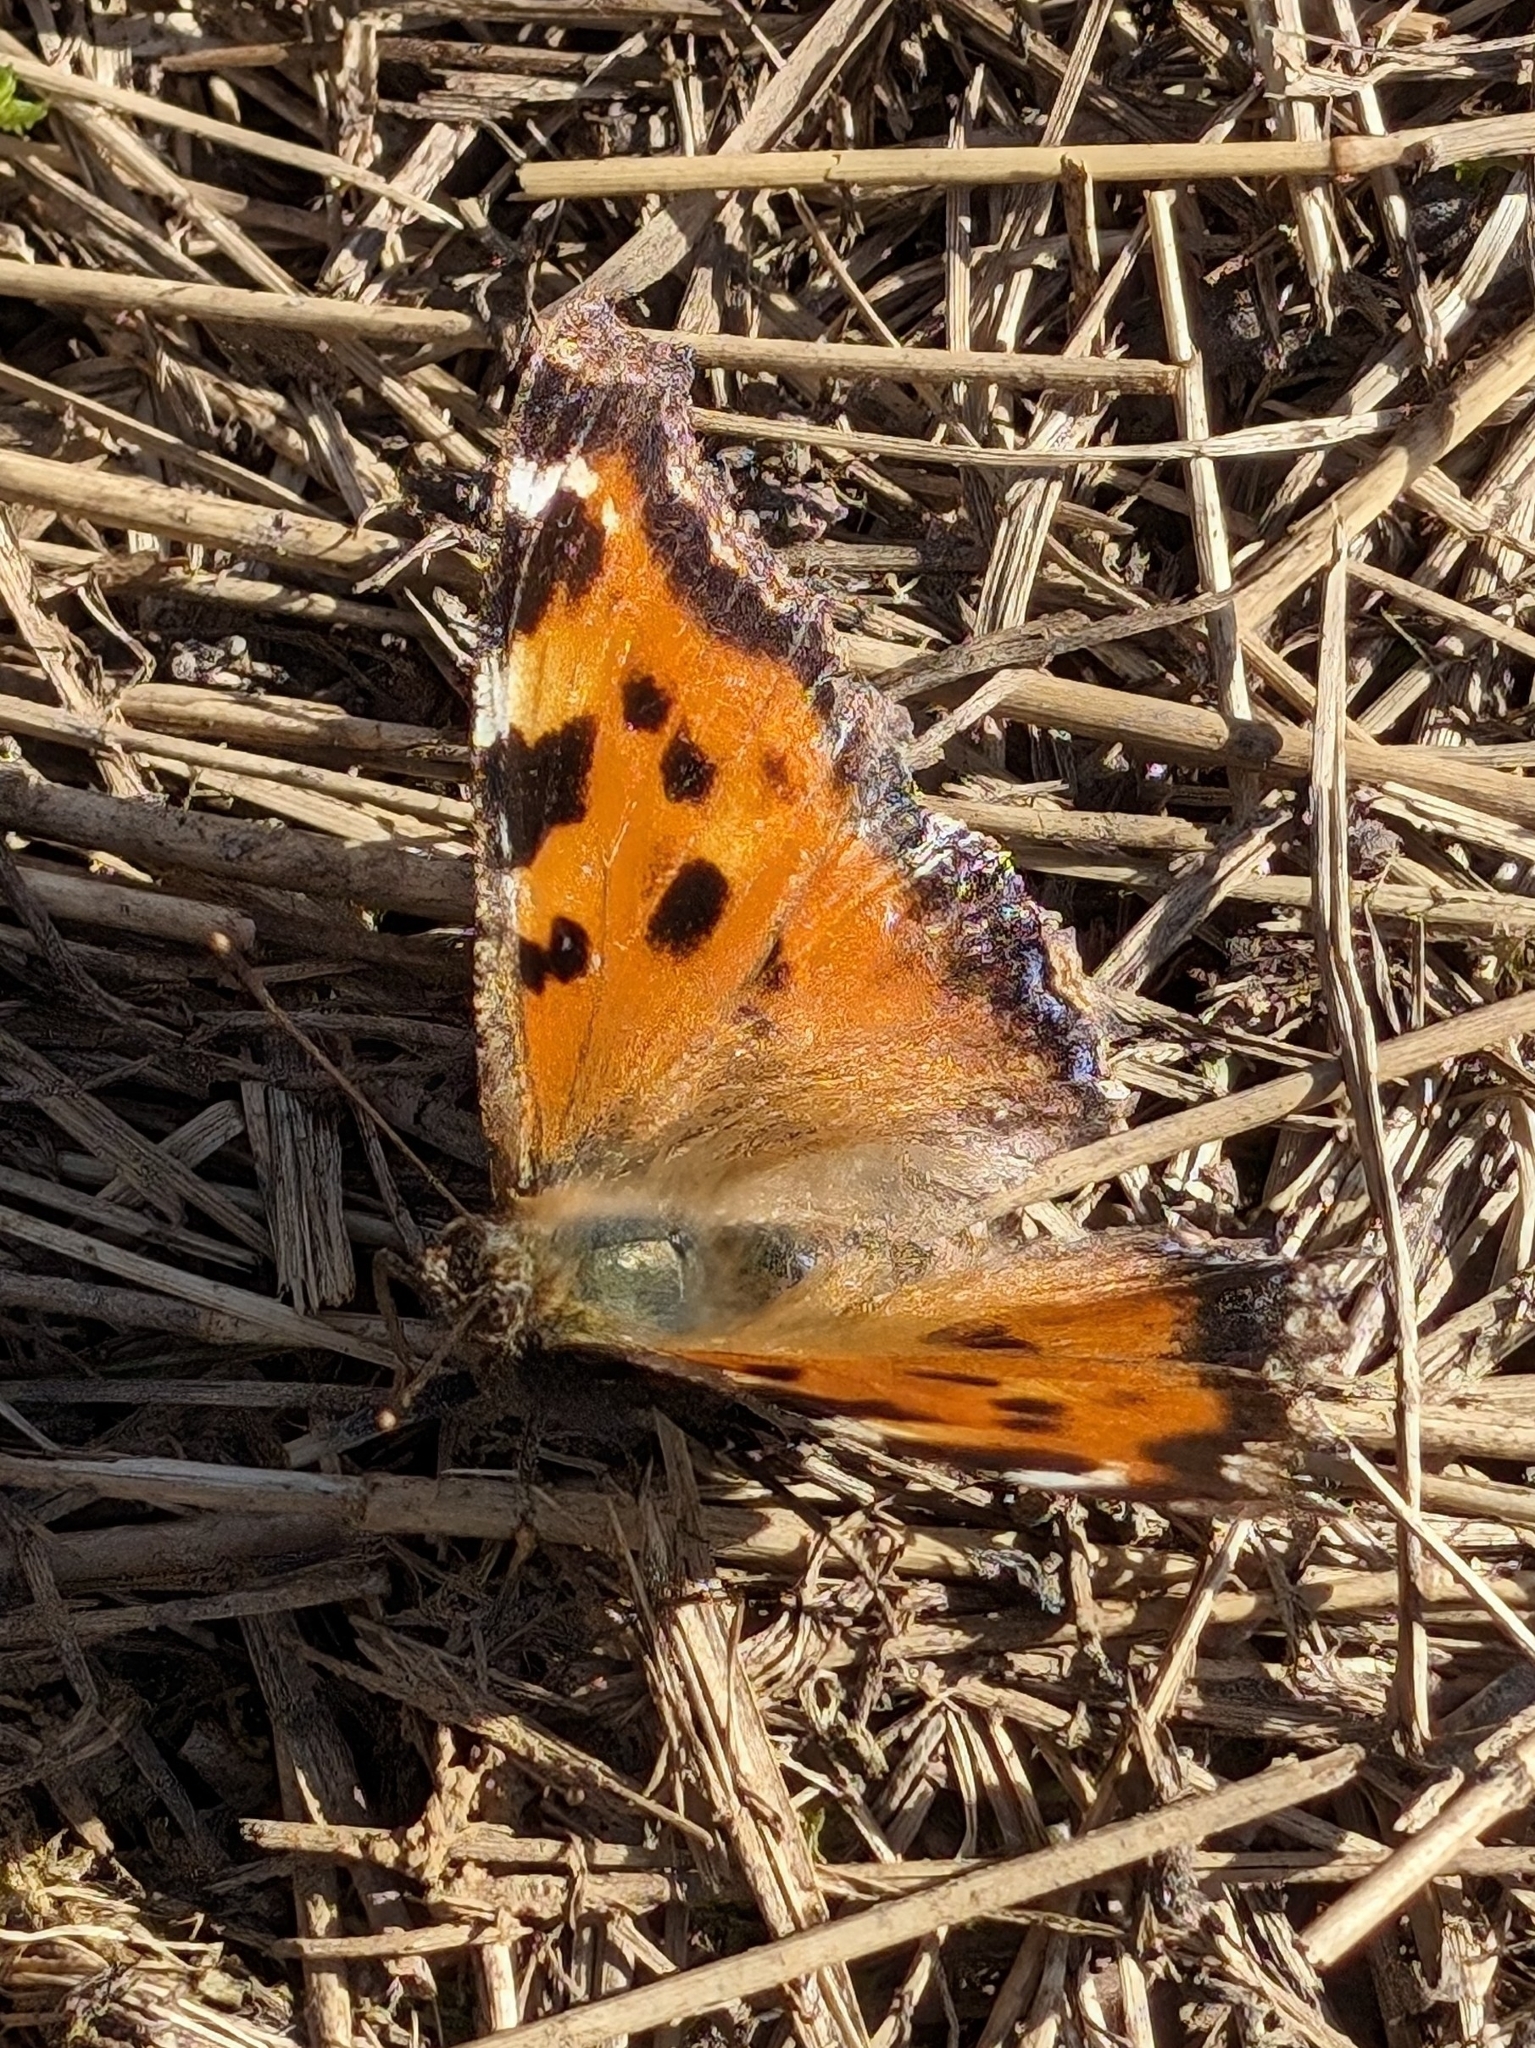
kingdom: Animalia
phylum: Arthropoda
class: Insecta
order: Lepidoptera
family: Nymphalidae
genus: Nymphalis
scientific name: Nymphalis xanthomelas
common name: Scarce tortoiseshell
